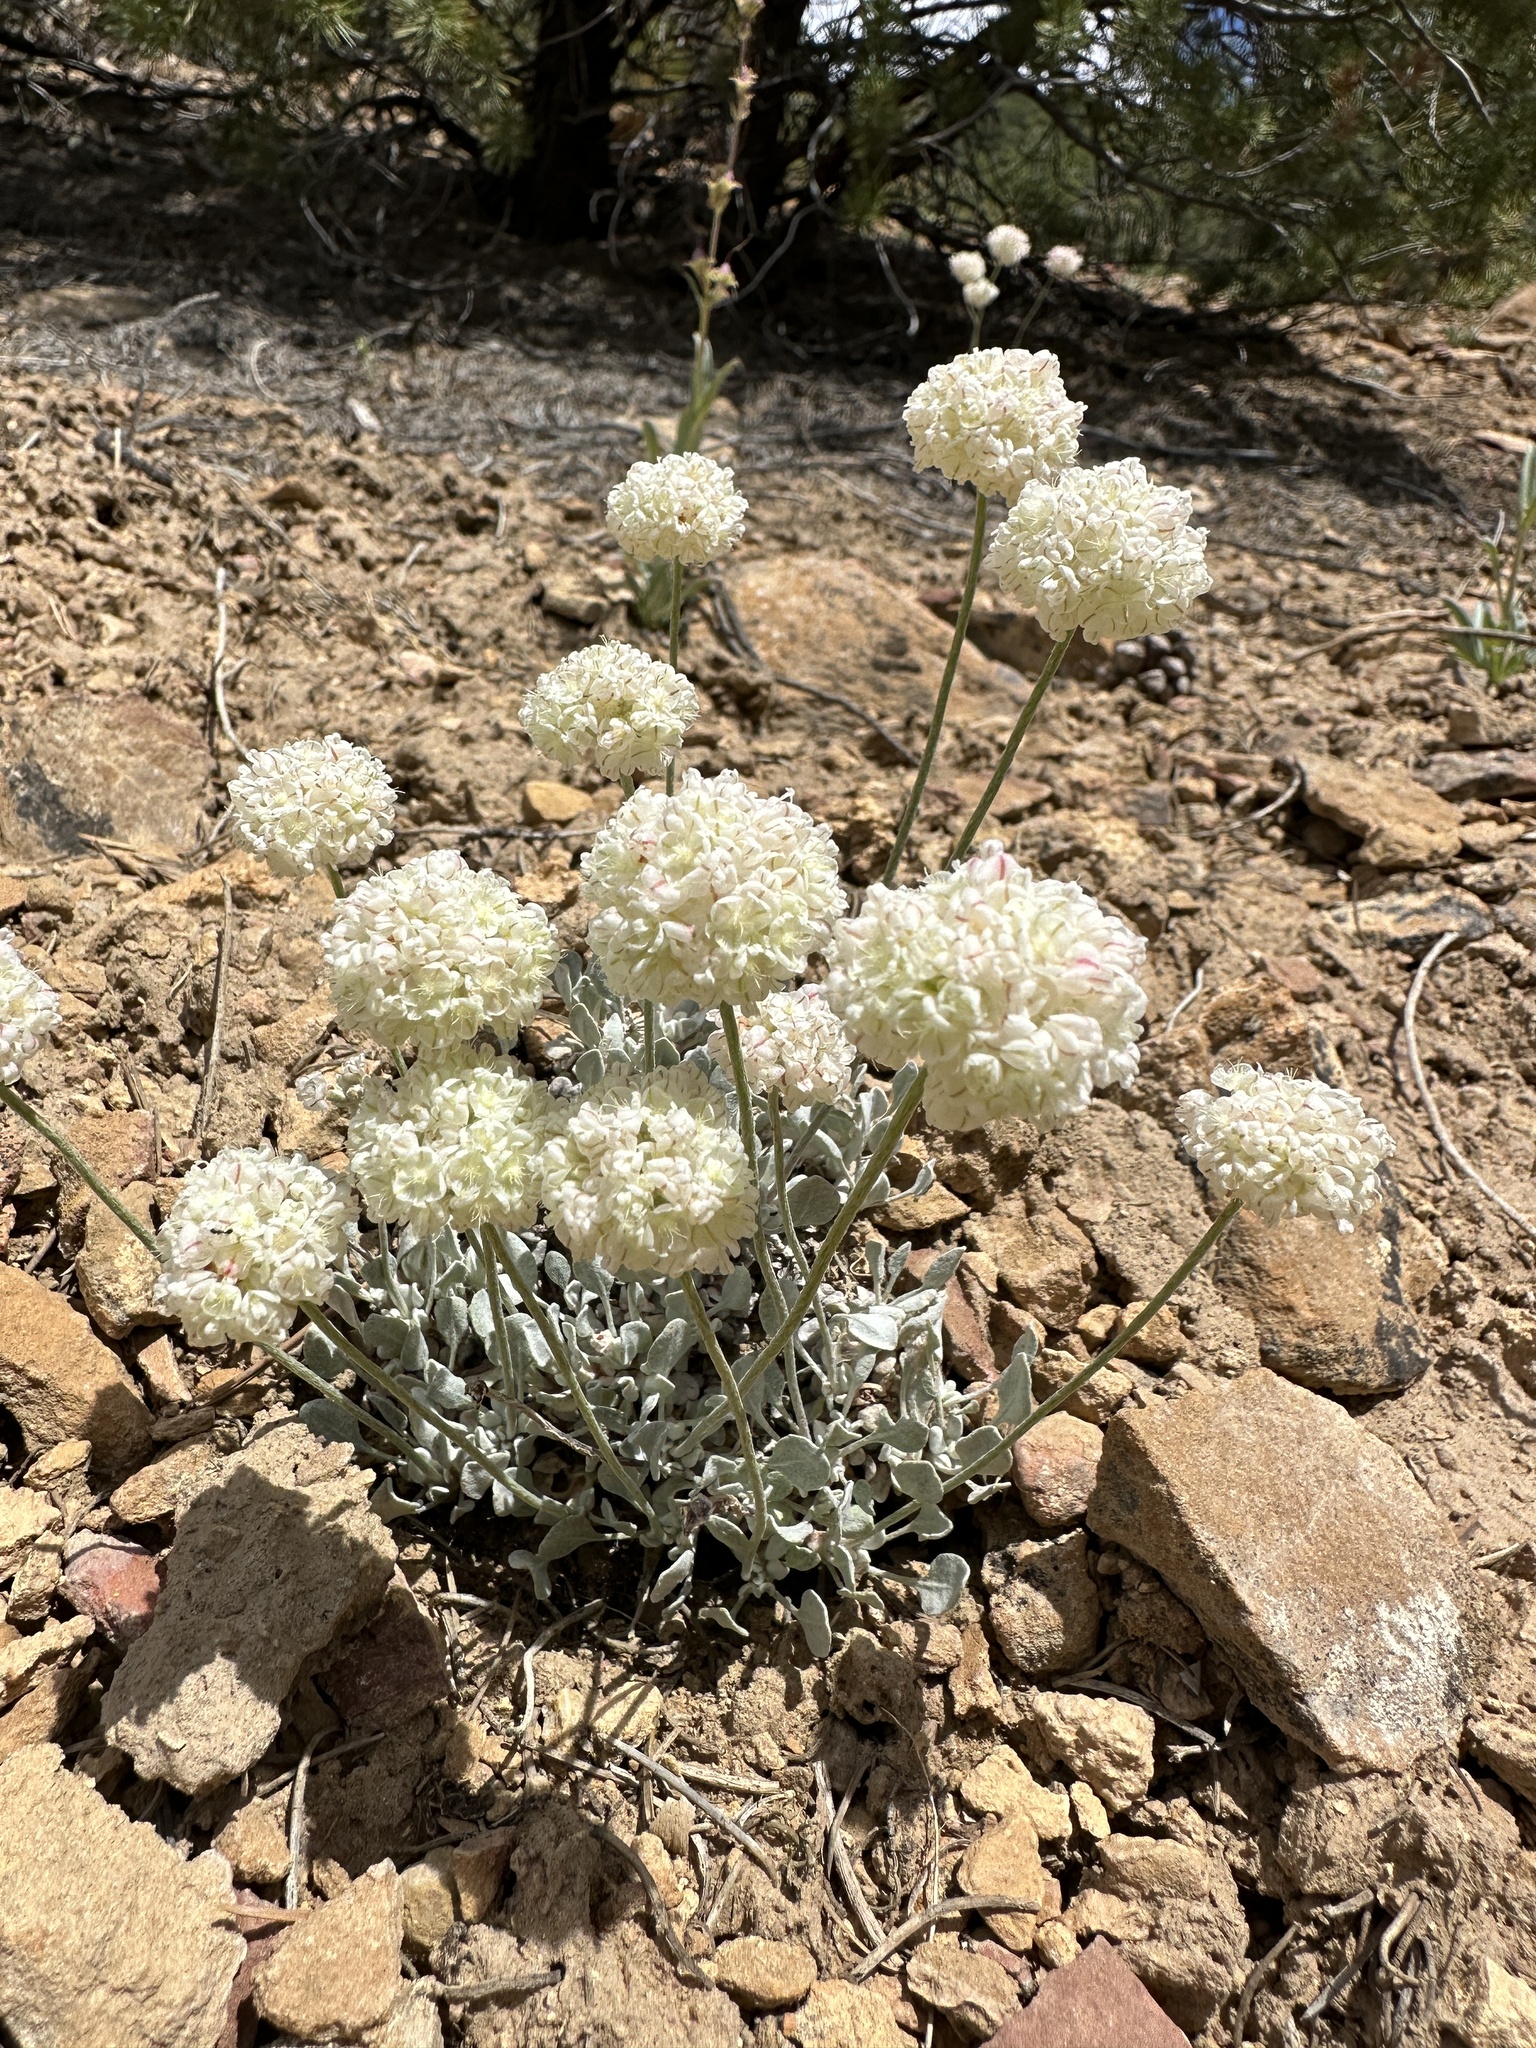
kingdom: Plantae
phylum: Tracheophyta
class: Magnoliopsida
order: Caryophyllales
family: Polygonaceae
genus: Eriogonum
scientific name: Eriogonum ovalifolium
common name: Cushion buckwheat
